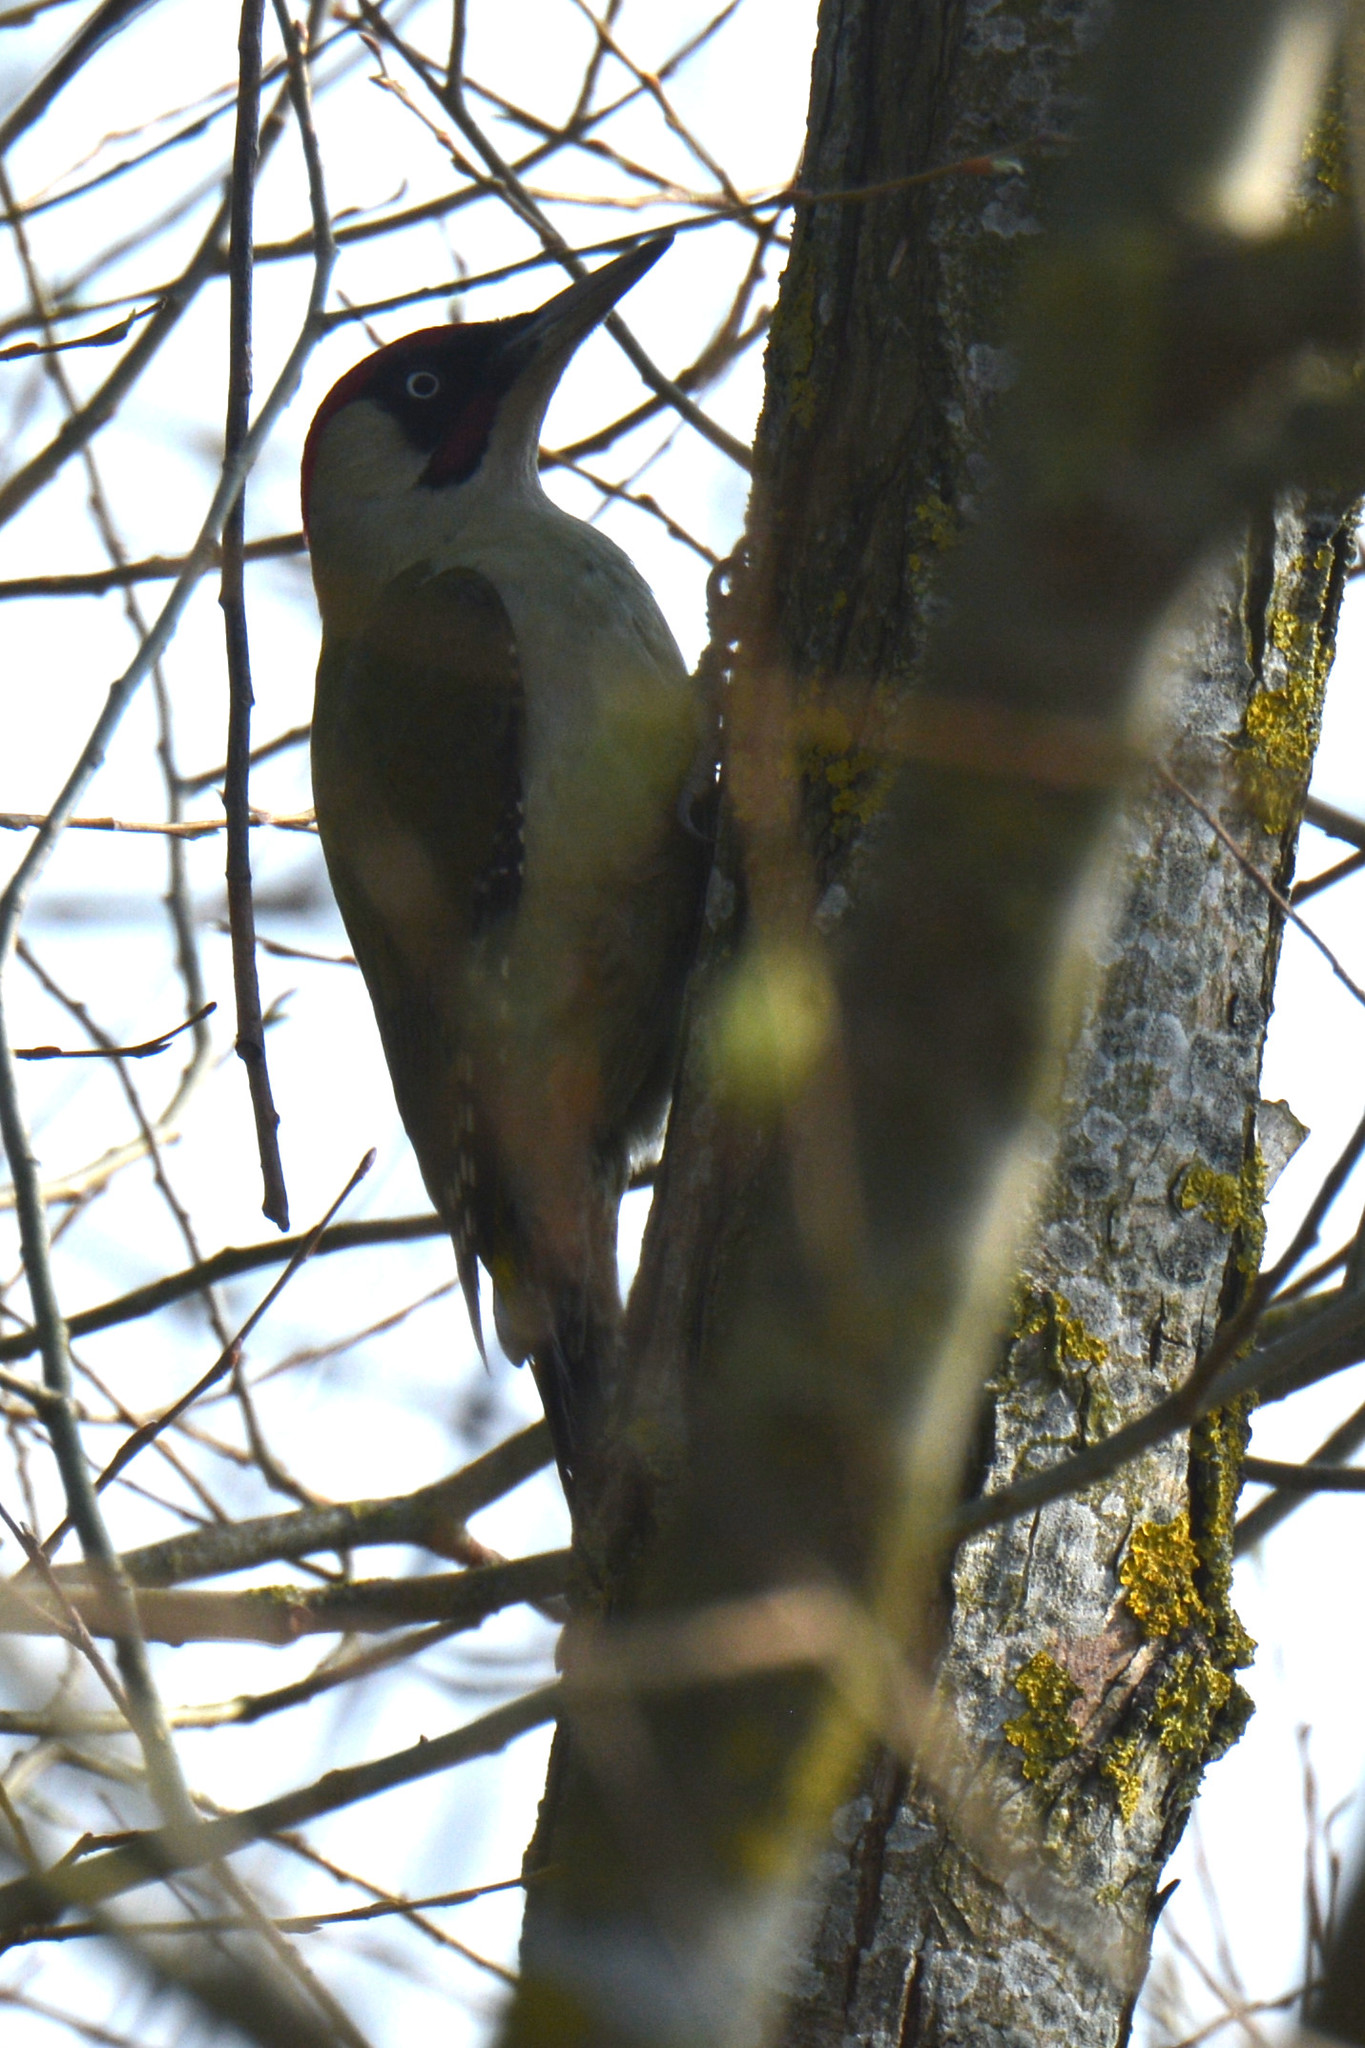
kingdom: Animalia
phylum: Chordata
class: Aves
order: Piciformes
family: Picidae
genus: Picus
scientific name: Picus viridis
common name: European green woodpecker
